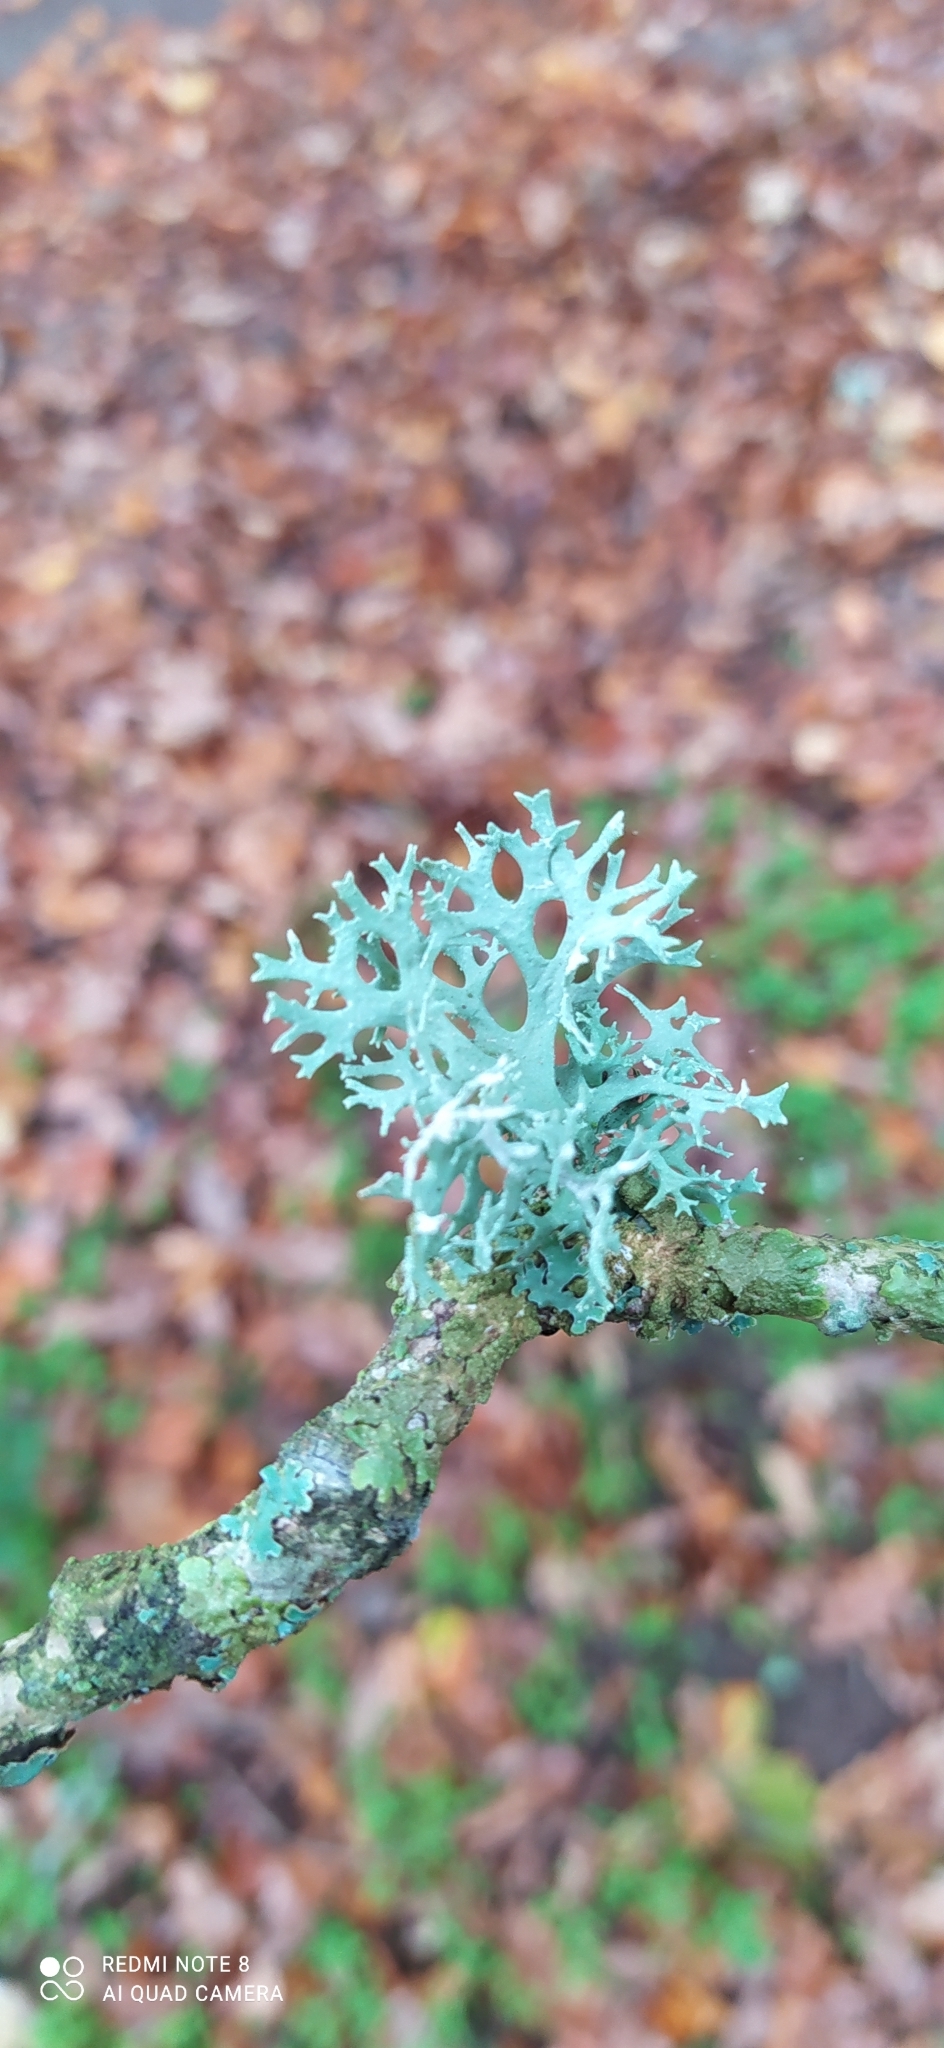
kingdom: Fungi
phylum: Ascomycota
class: Lecanoromycetes
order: Lecanorales
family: Parmeliaceae
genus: Evernia
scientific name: Evernia prunastri
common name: Oak moss
